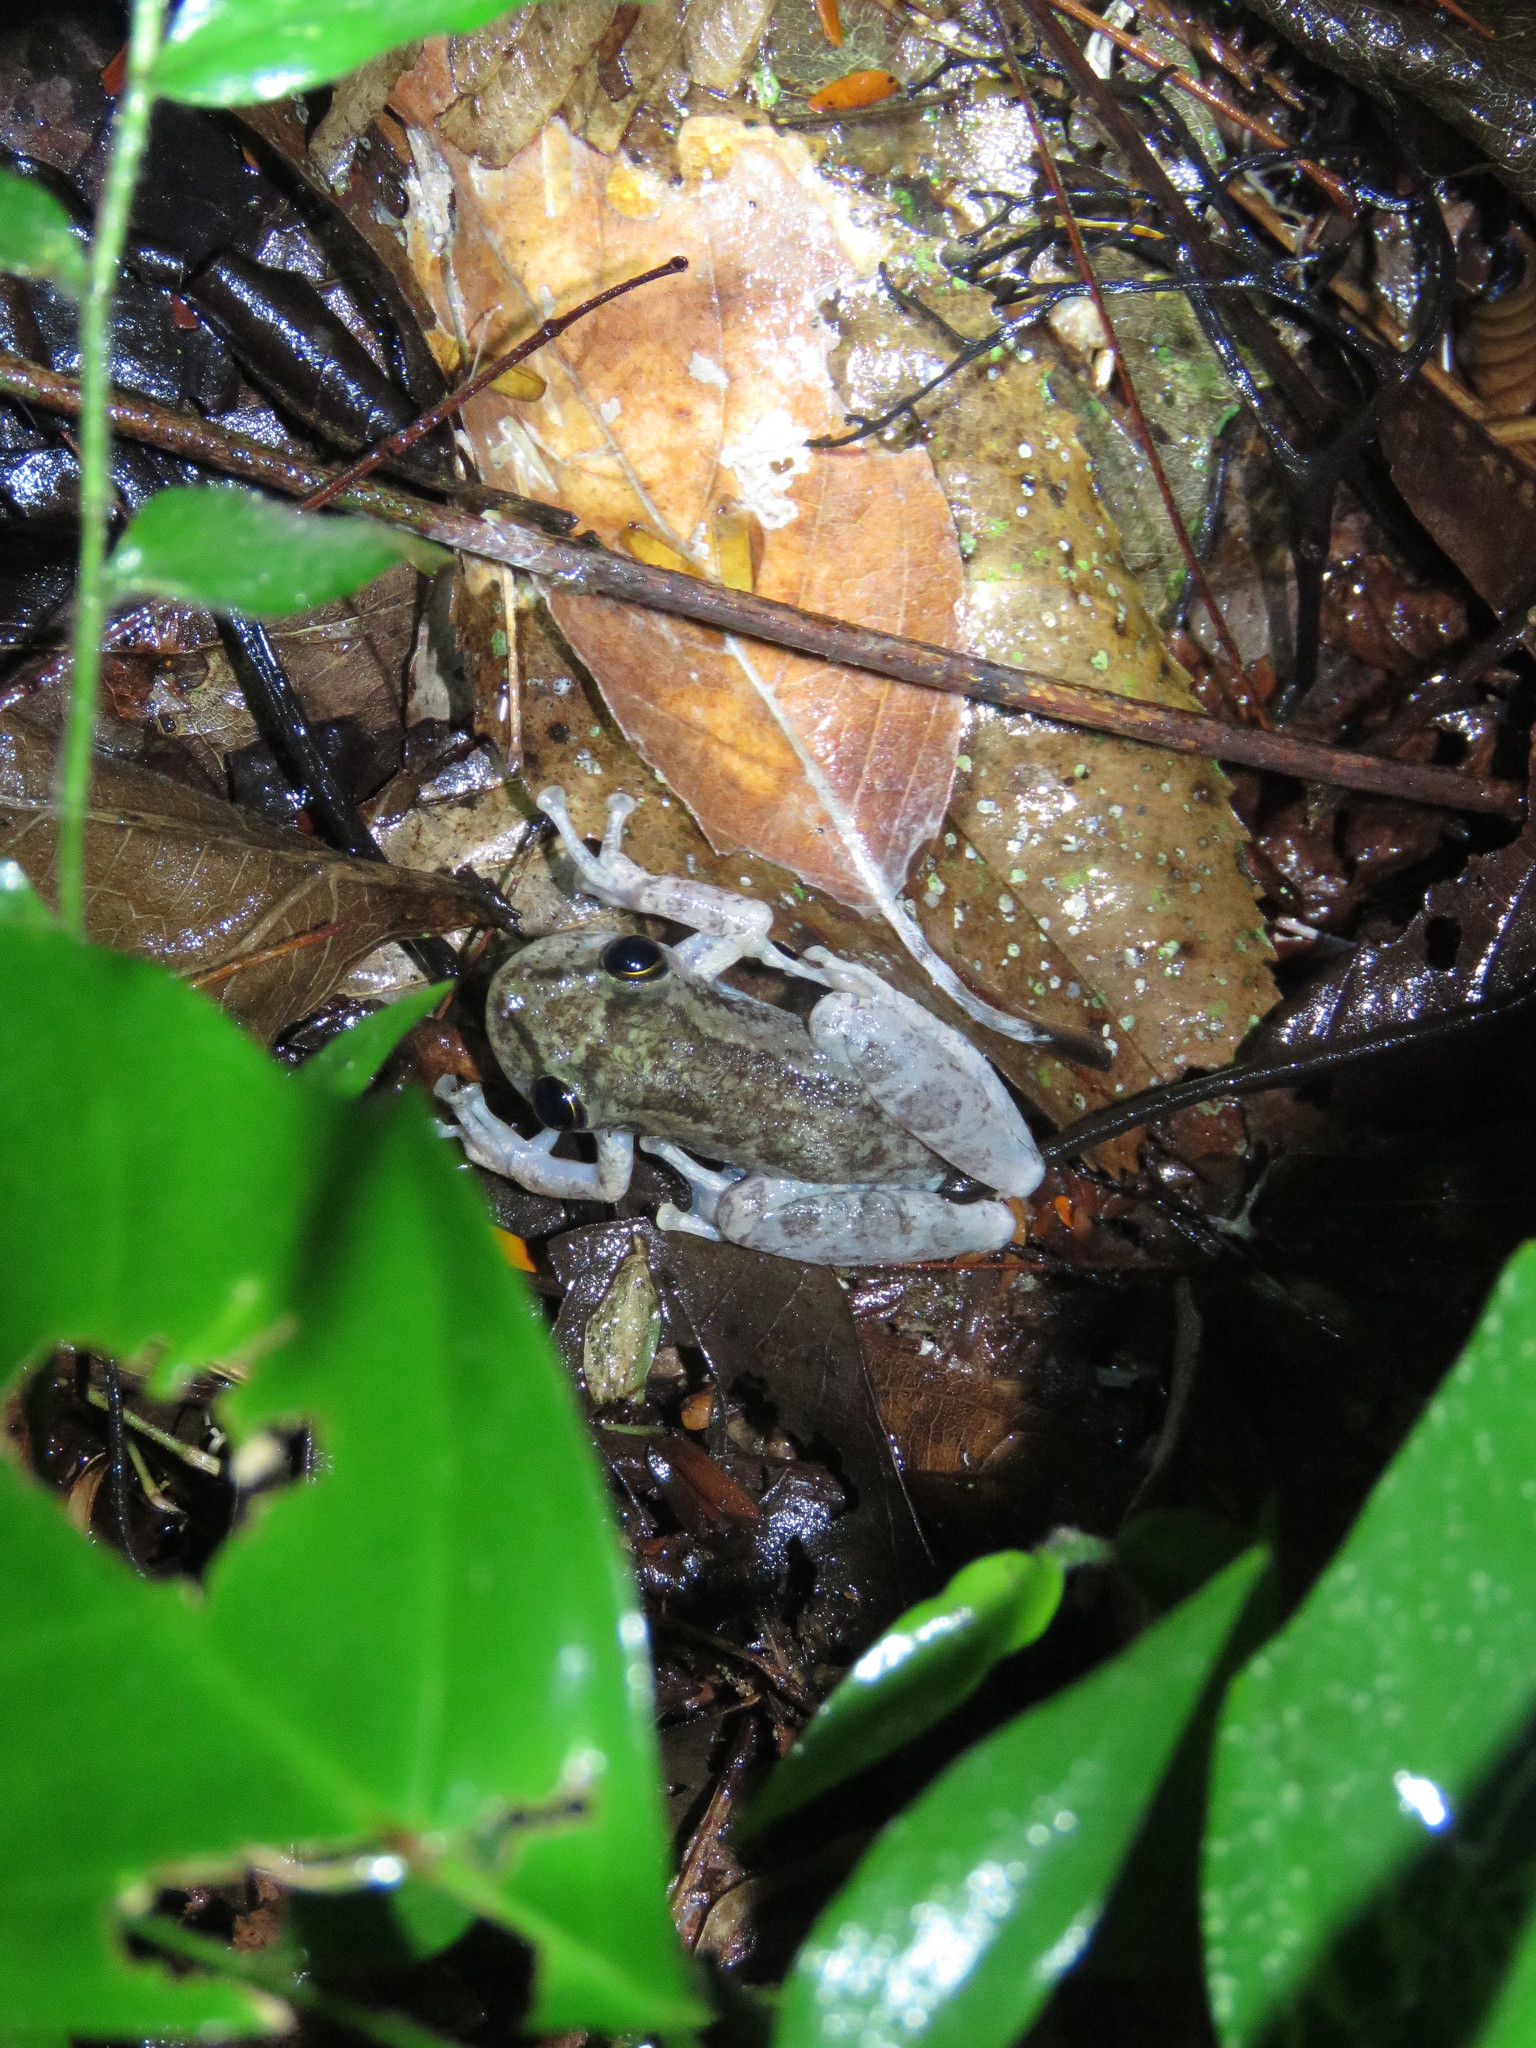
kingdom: Animalia
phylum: Chordata
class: Amphibia
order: Anura
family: Hylidae
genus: Scinax
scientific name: Scinax ruber
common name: Red snouted treefrog
